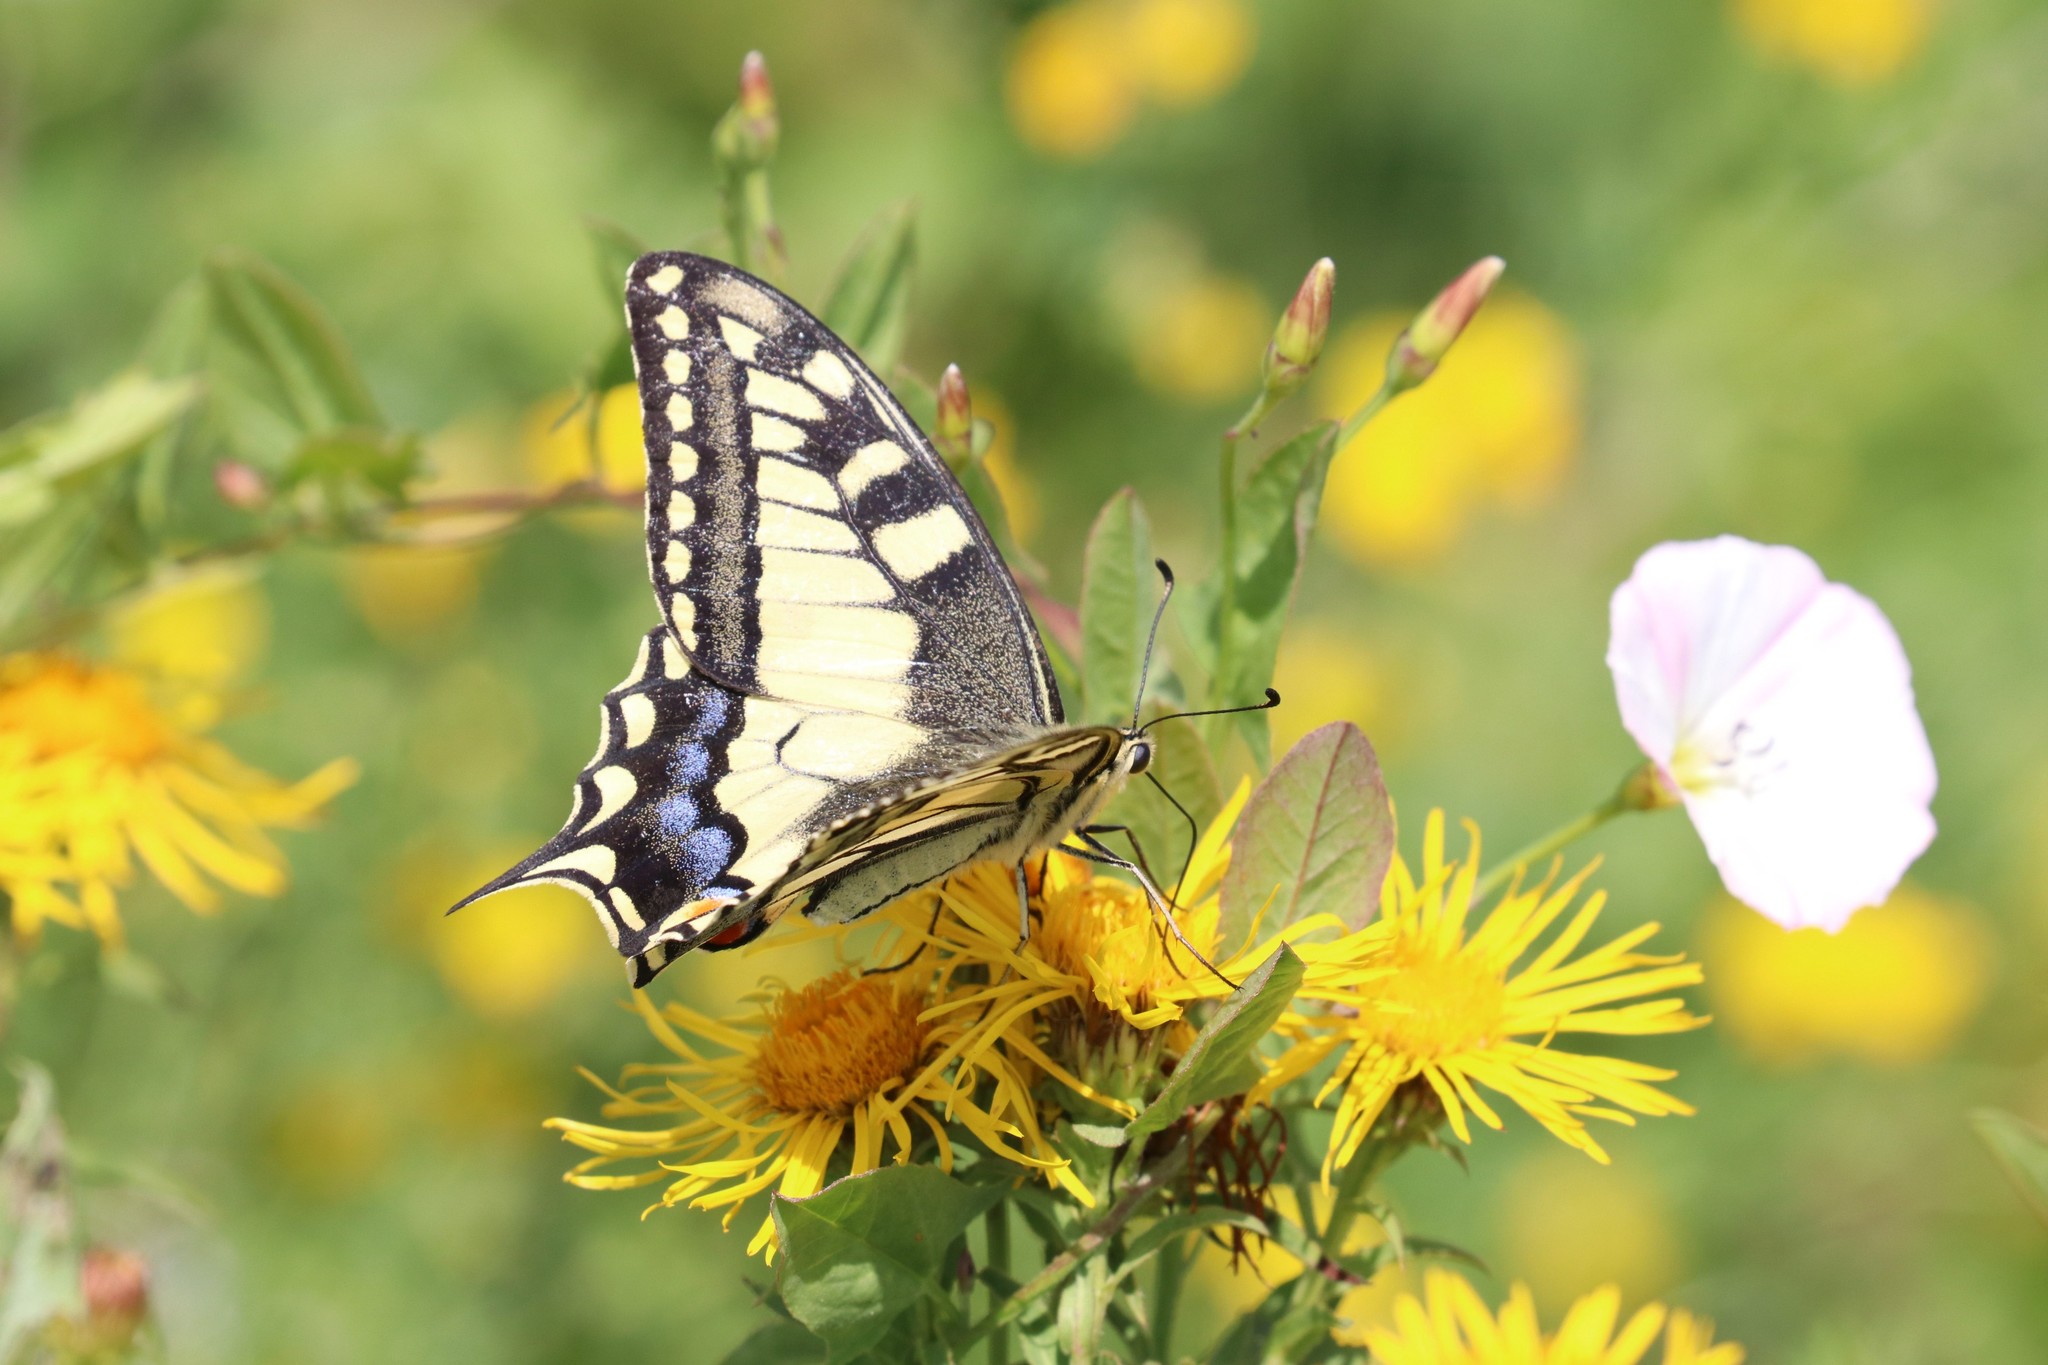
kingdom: Animalia
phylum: Arthropoda
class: Insecta
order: Lepidoptera
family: Papilionidae
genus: Papilio
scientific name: Papilio machaon
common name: Swallowtail
